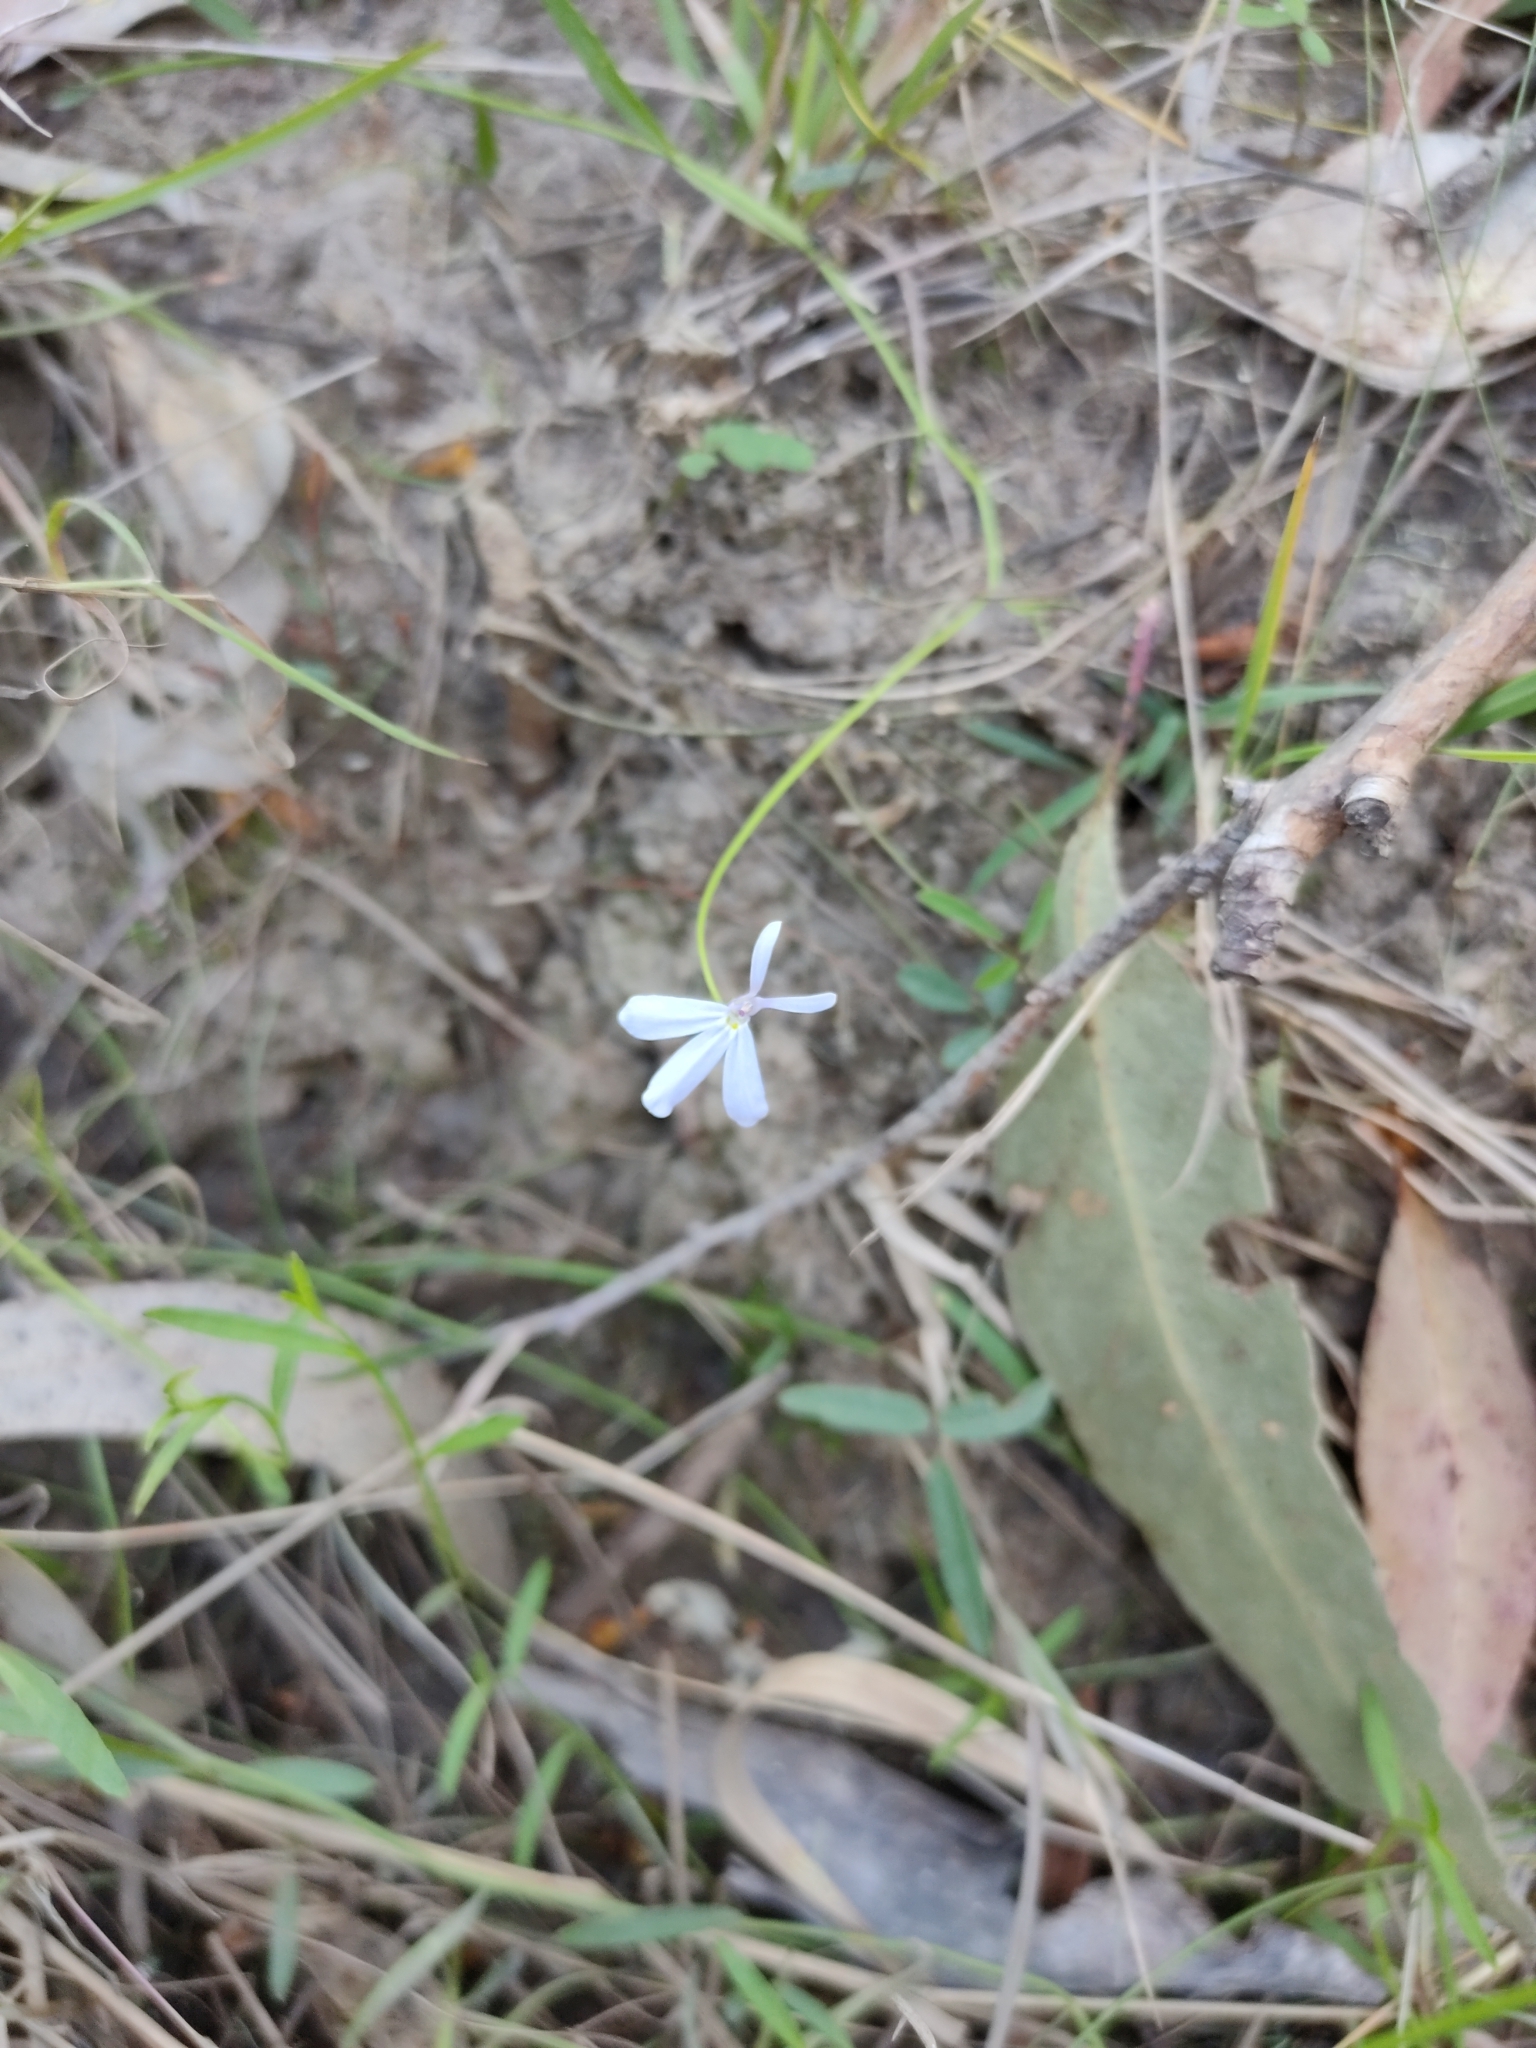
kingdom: Plantae
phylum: Tracheophyta
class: Magnoliopsida
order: Asterales
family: Campanulaceae
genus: Lobelia
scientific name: Lobelia stenophylla
